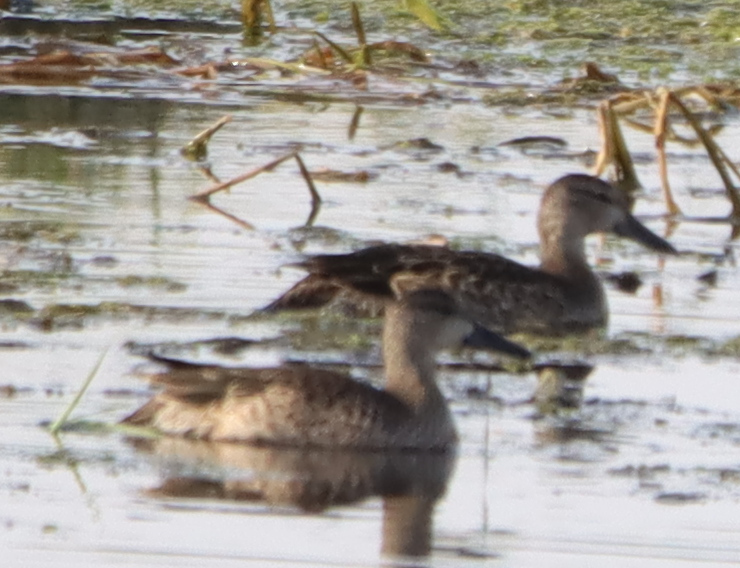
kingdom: Animalia
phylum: Chordata
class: Aves
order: Anseriformes
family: Anatidae
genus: Spatula
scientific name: Spatula discors
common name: Blue-winged teal
